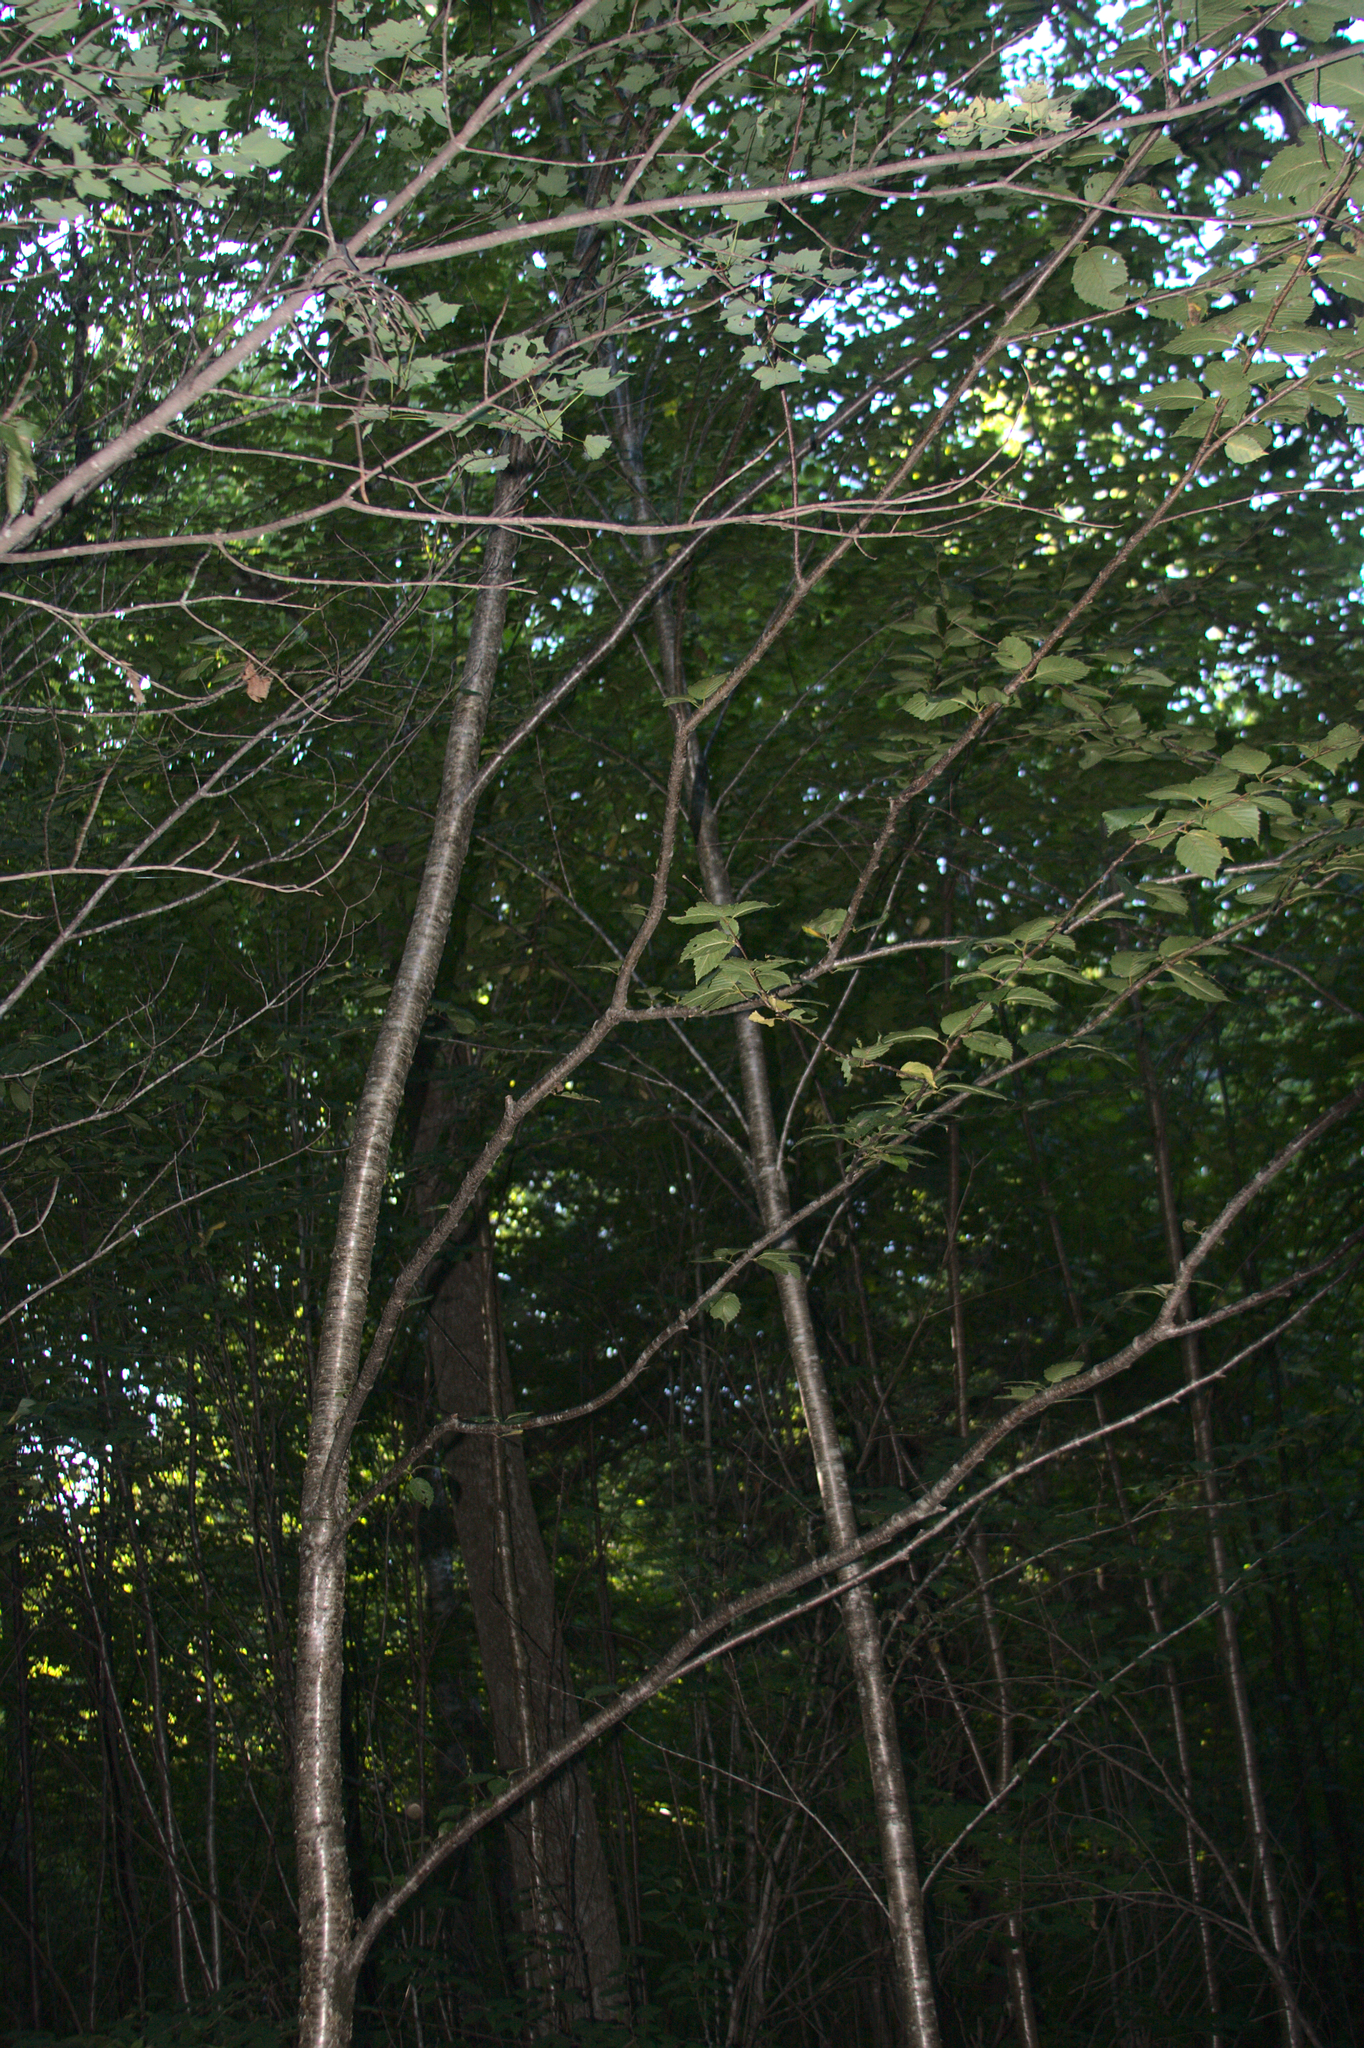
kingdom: Plantae
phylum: Tracheophyta
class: Magnoliopsida
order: Fagales
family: Betulaceae
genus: Betula
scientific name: Betula alleghaniensis
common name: Yellow birch
